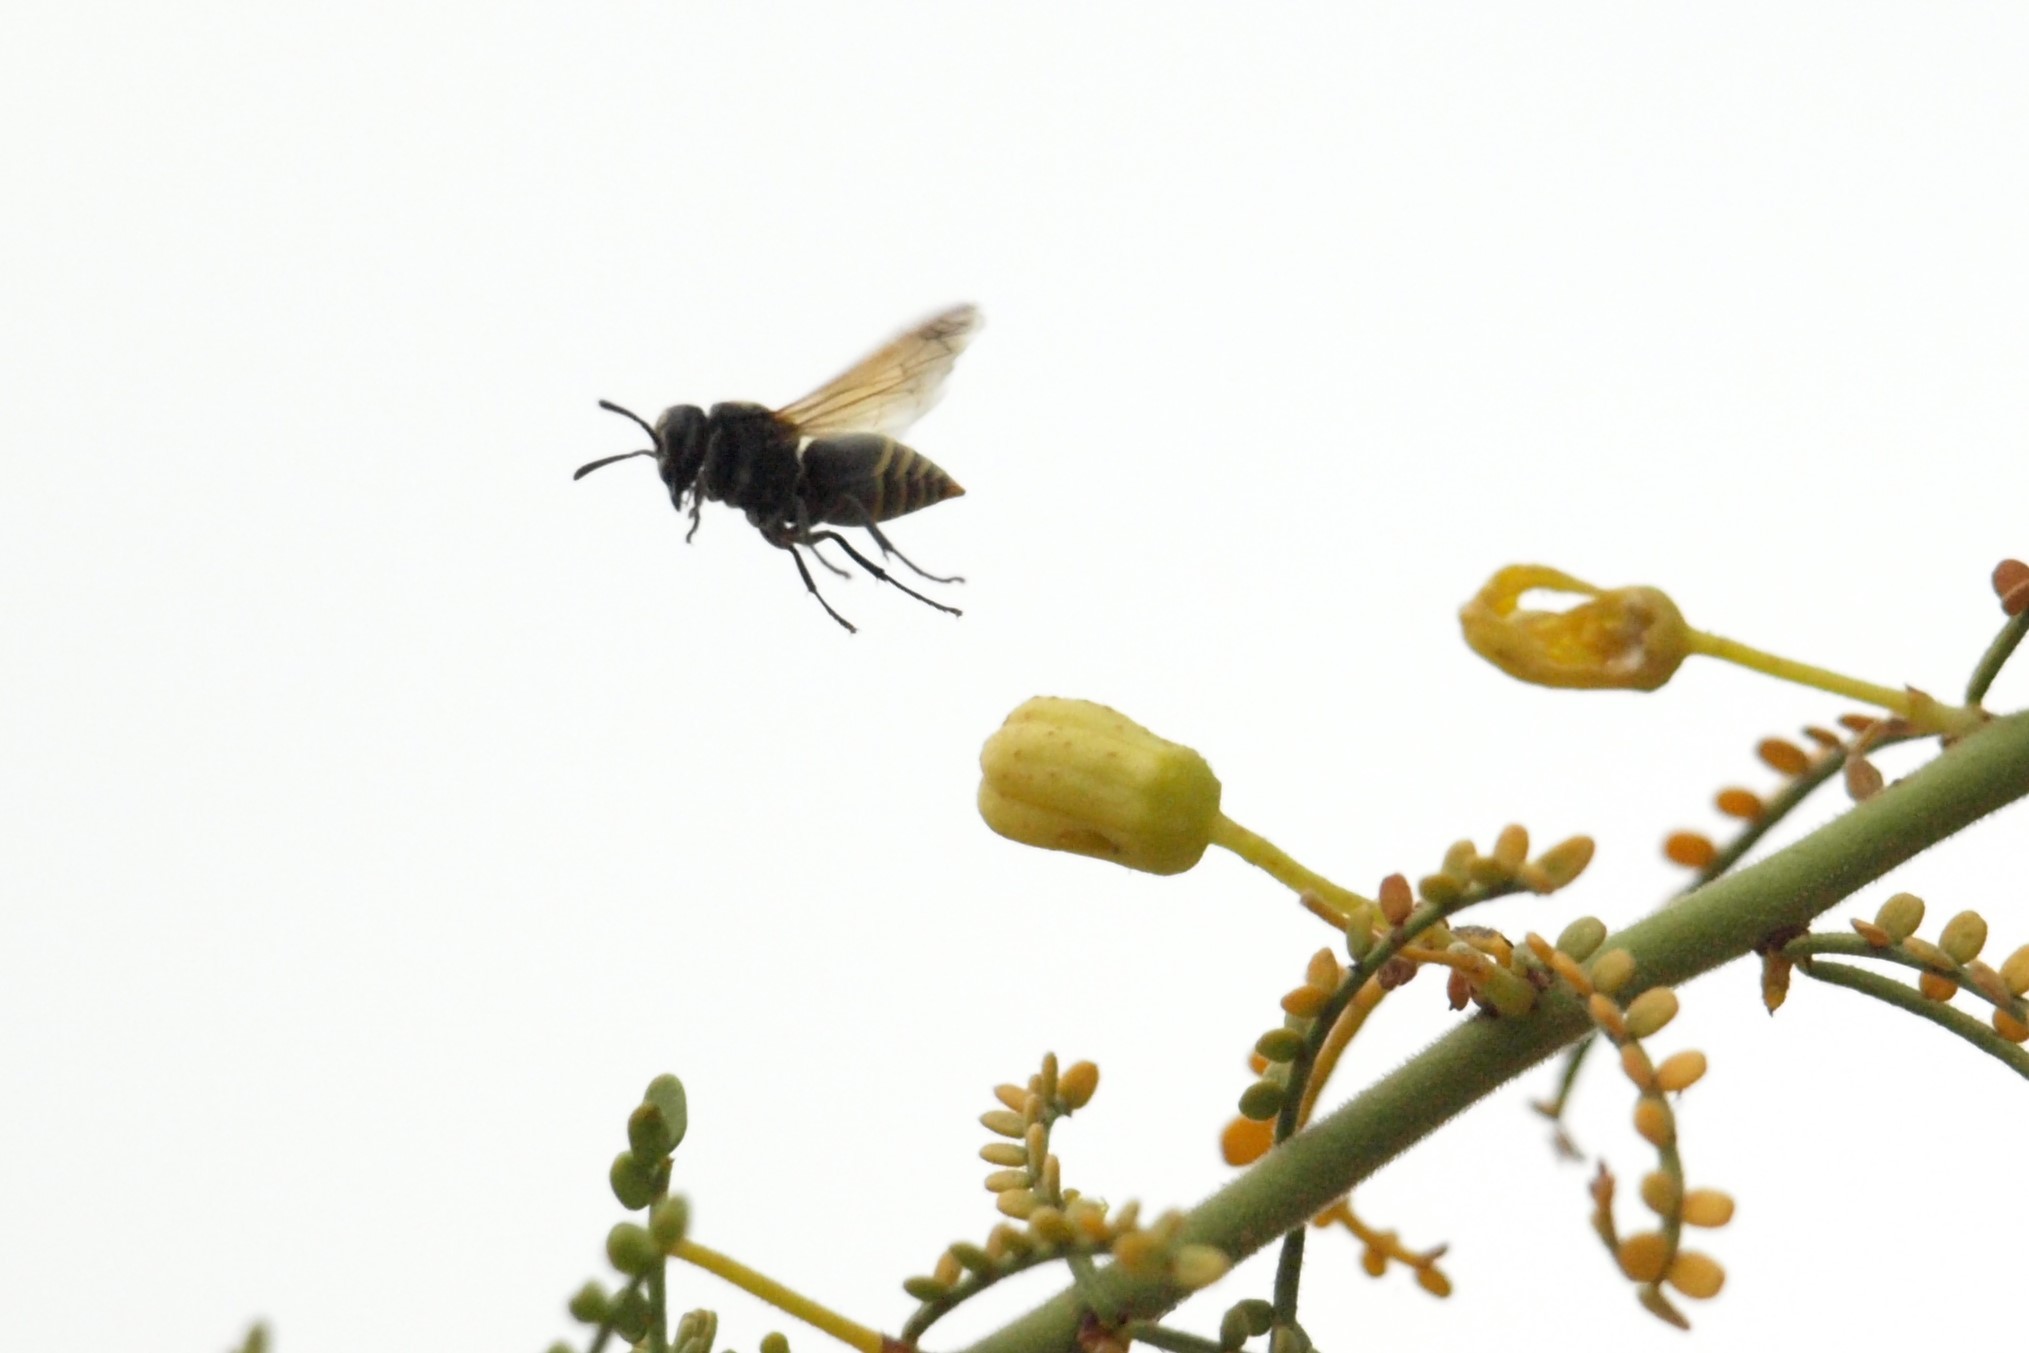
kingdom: Animalia
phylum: Arthropoda
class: Insecta
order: Hymenoptera
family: Vespidae
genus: Brachygastra
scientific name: Brachygastra mellifica
